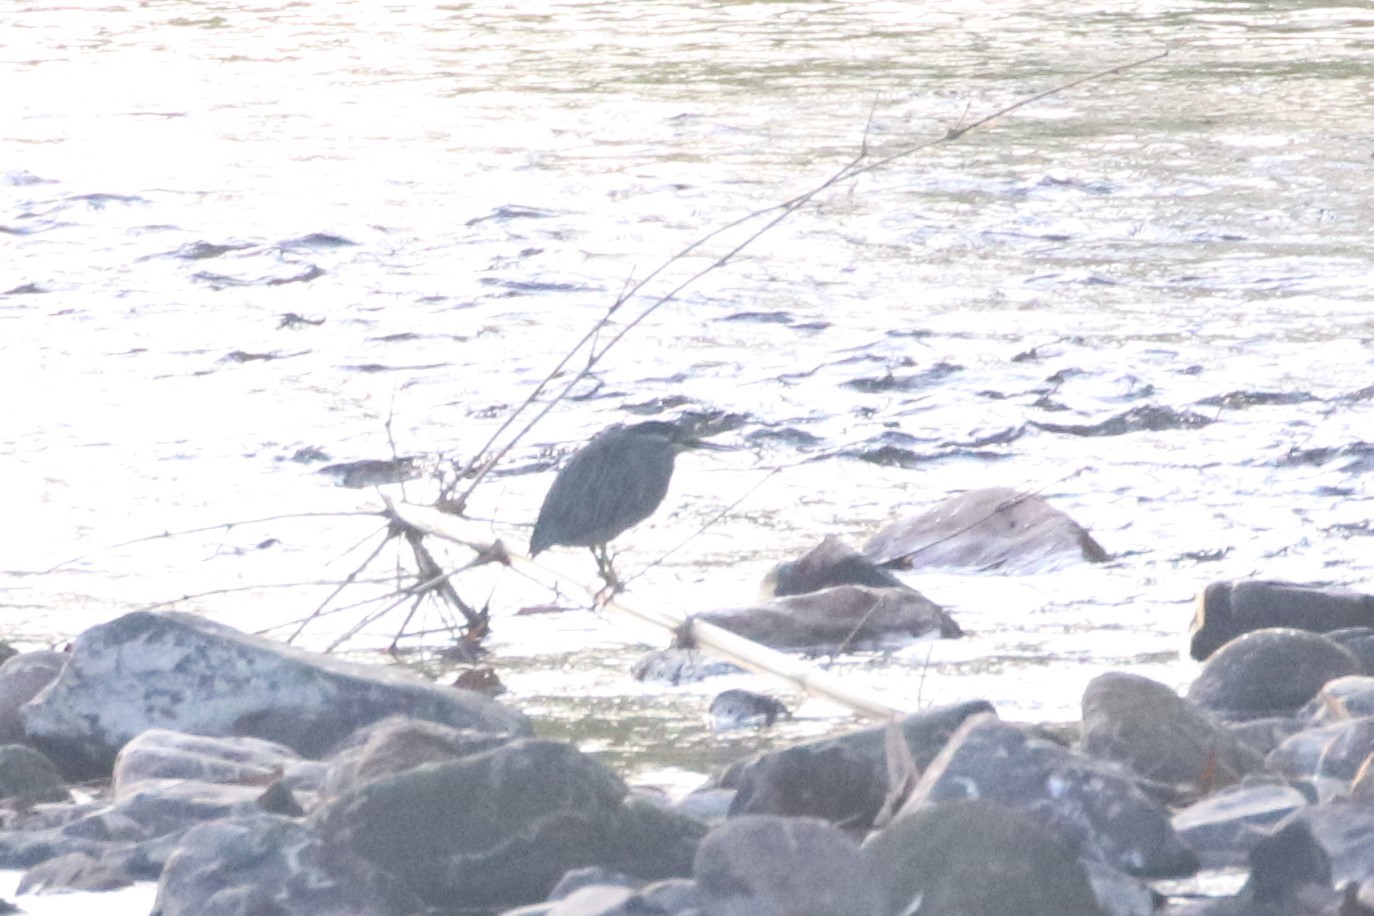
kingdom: Animalia
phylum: Chordata
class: Aves
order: Pelecaniformes
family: Ardeidae
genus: Butorides
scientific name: Butorides striata
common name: Striated heron
